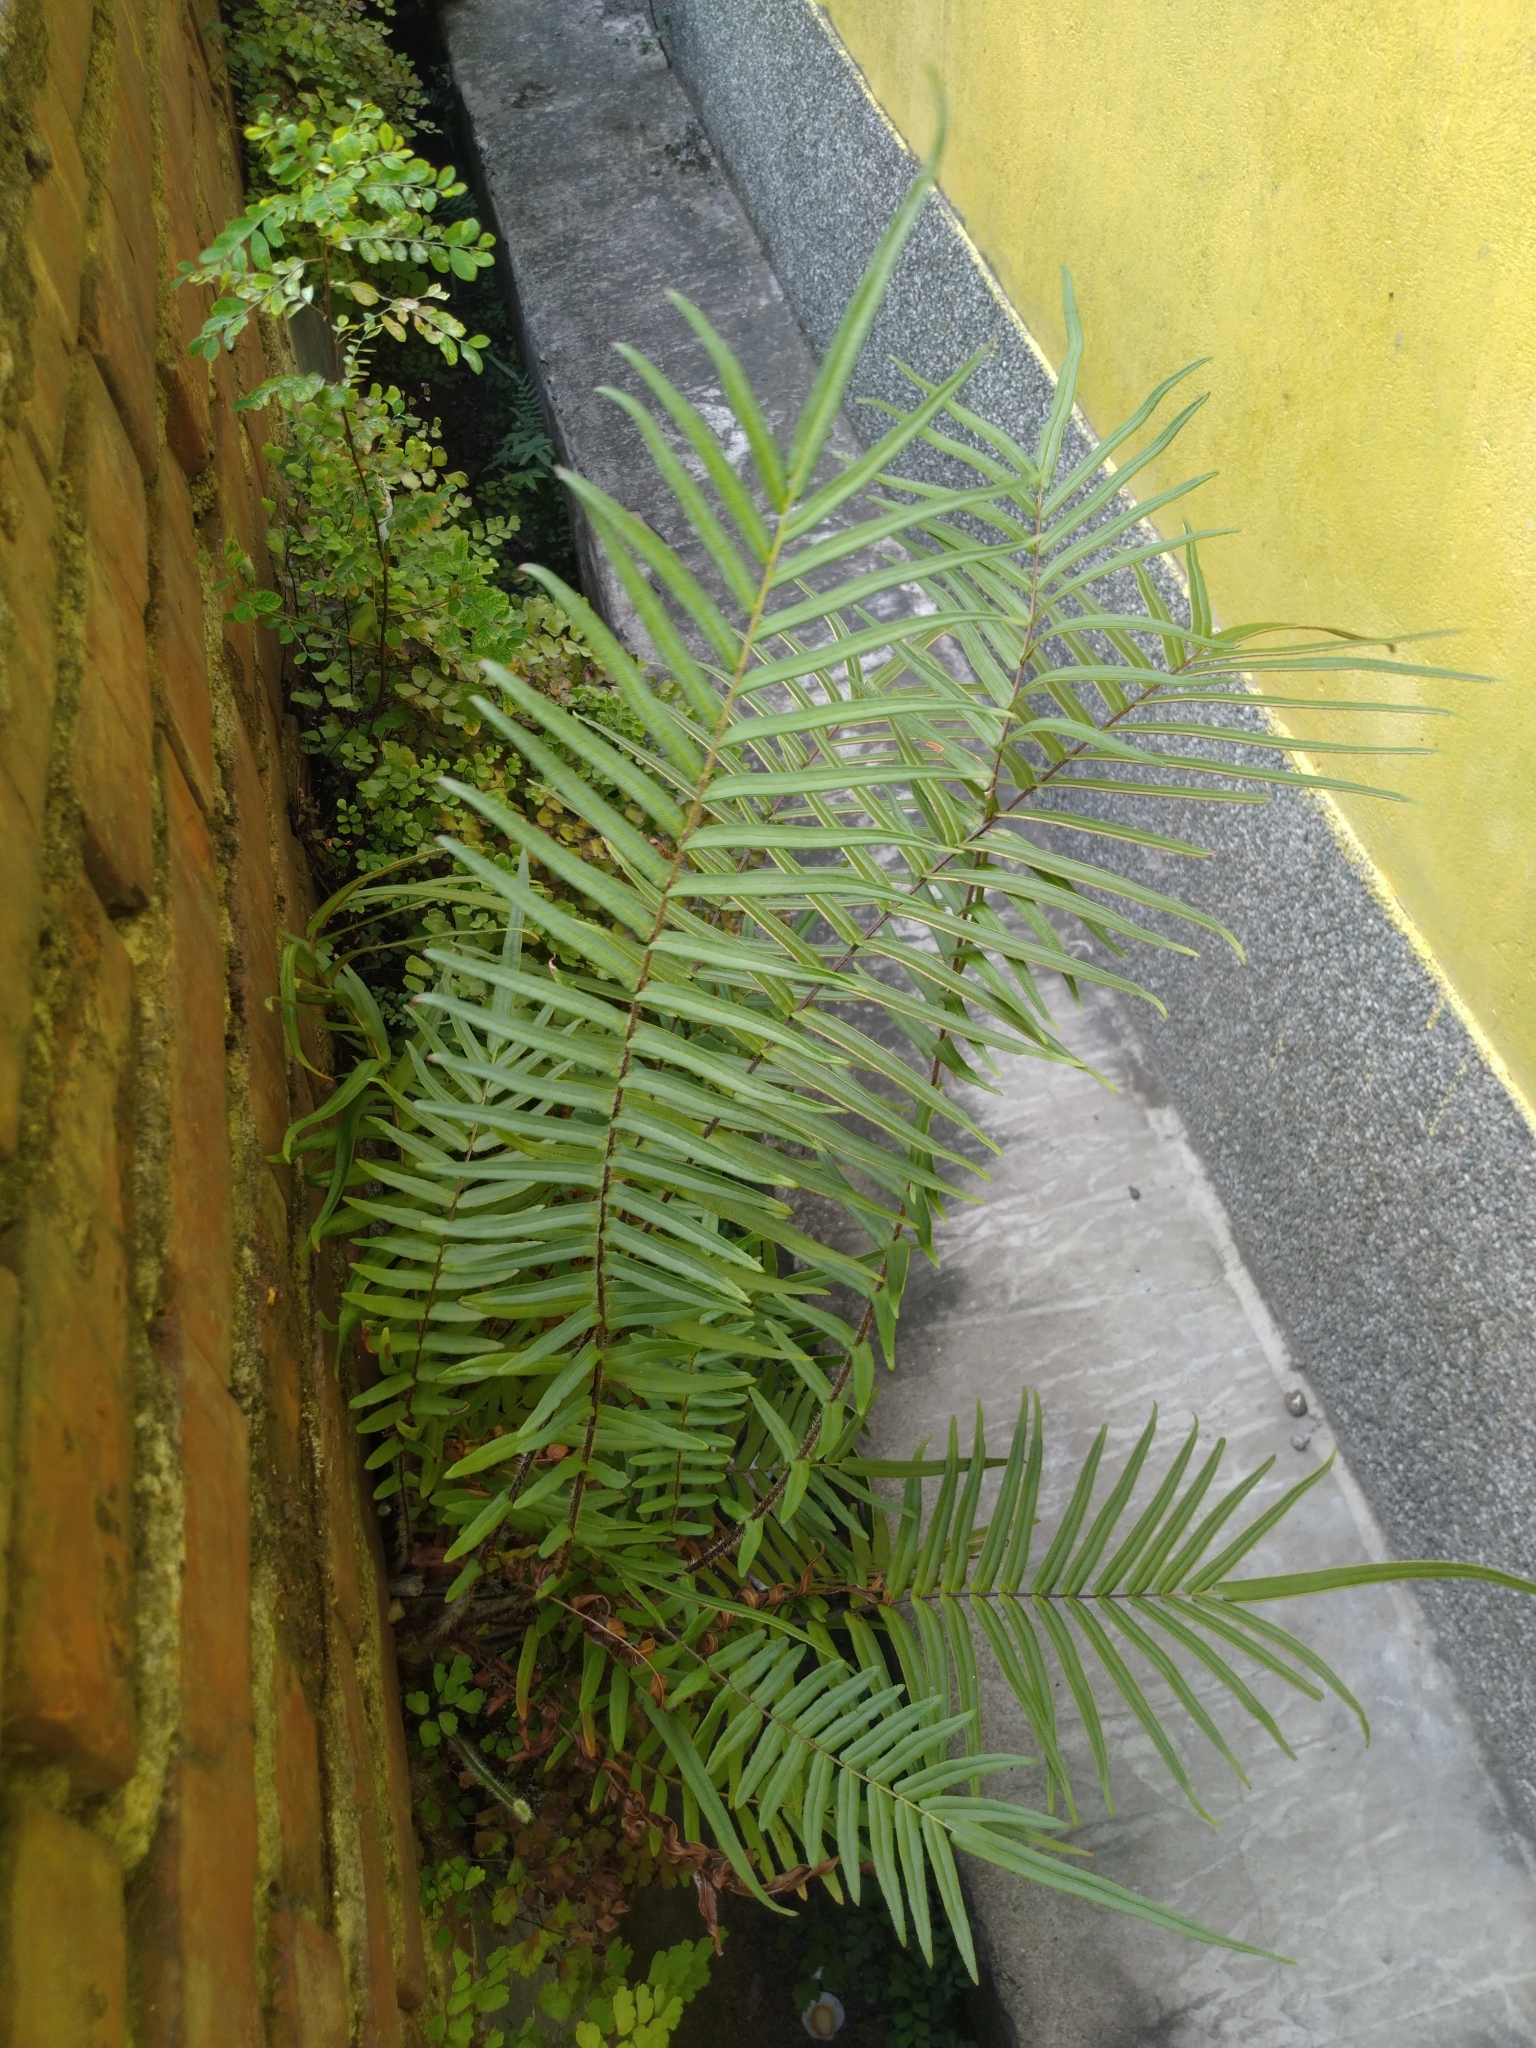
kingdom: Plantae
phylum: Tracheophyta
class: Polypodiopsida
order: Polypodiales
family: Pteridaceae
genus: Pteris
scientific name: Pteris vittata
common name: Ladder brake
